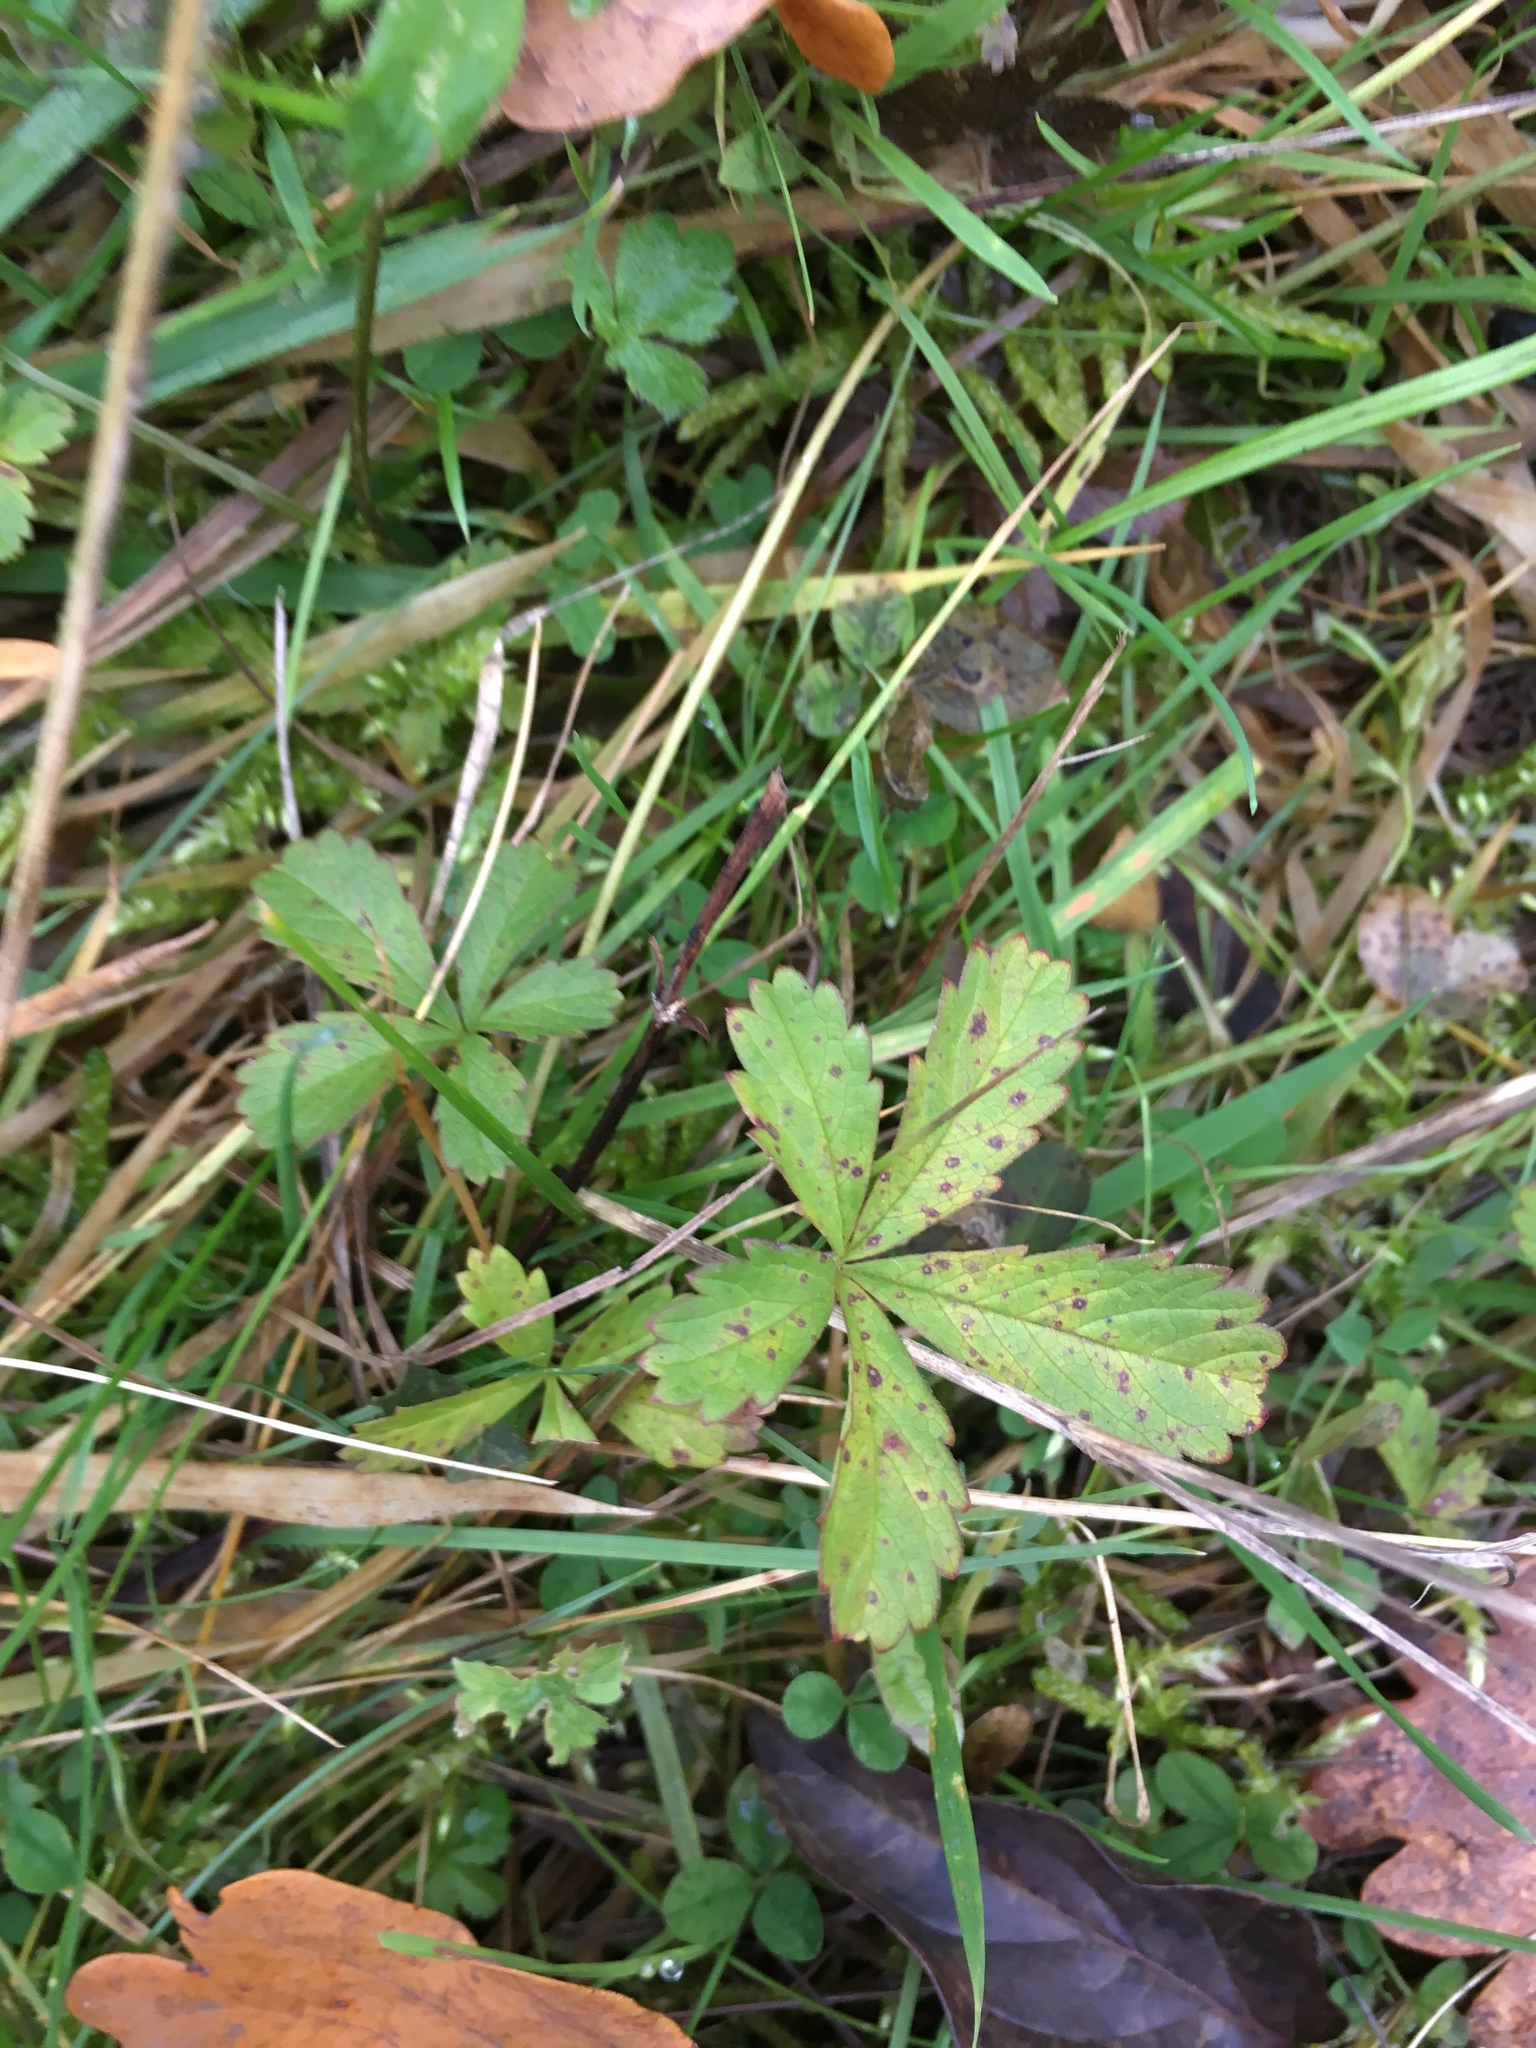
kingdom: Plantae
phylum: Tracheophyta
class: Magnoliopsida
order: Rosales
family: Rosaceae
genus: Potentilla
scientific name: Potentilla reptans
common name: Creeping cinquefoil
